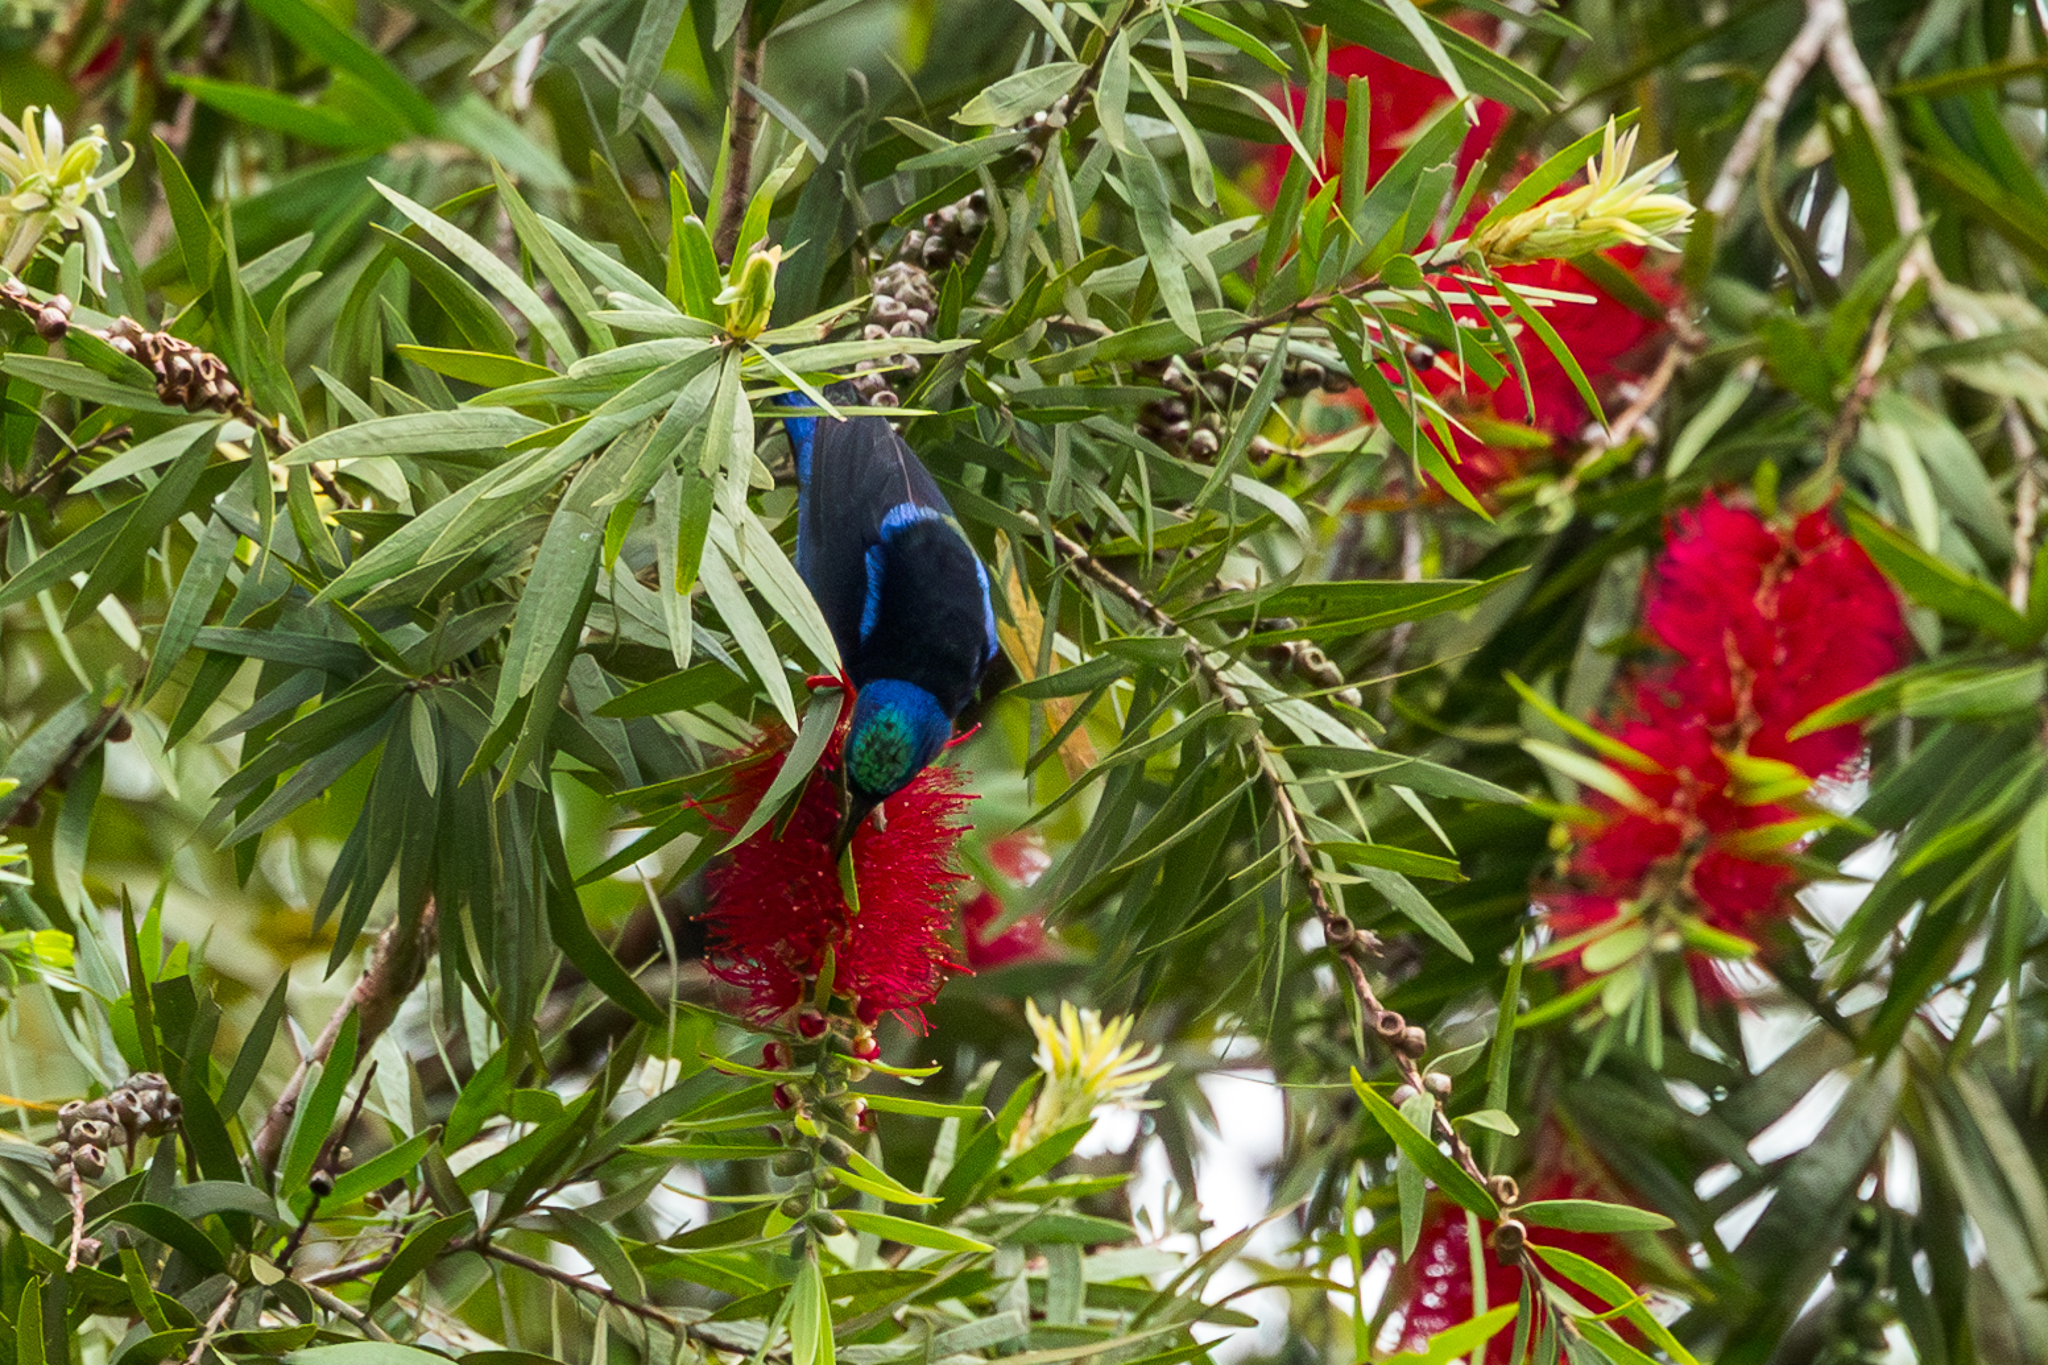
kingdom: Animalia
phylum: Chordata
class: Aves
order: Passeriformes
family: Thraupidae
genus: Cyanerpes
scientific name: Cyanerpes cyaneus
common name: Red-legged honeycreeper
